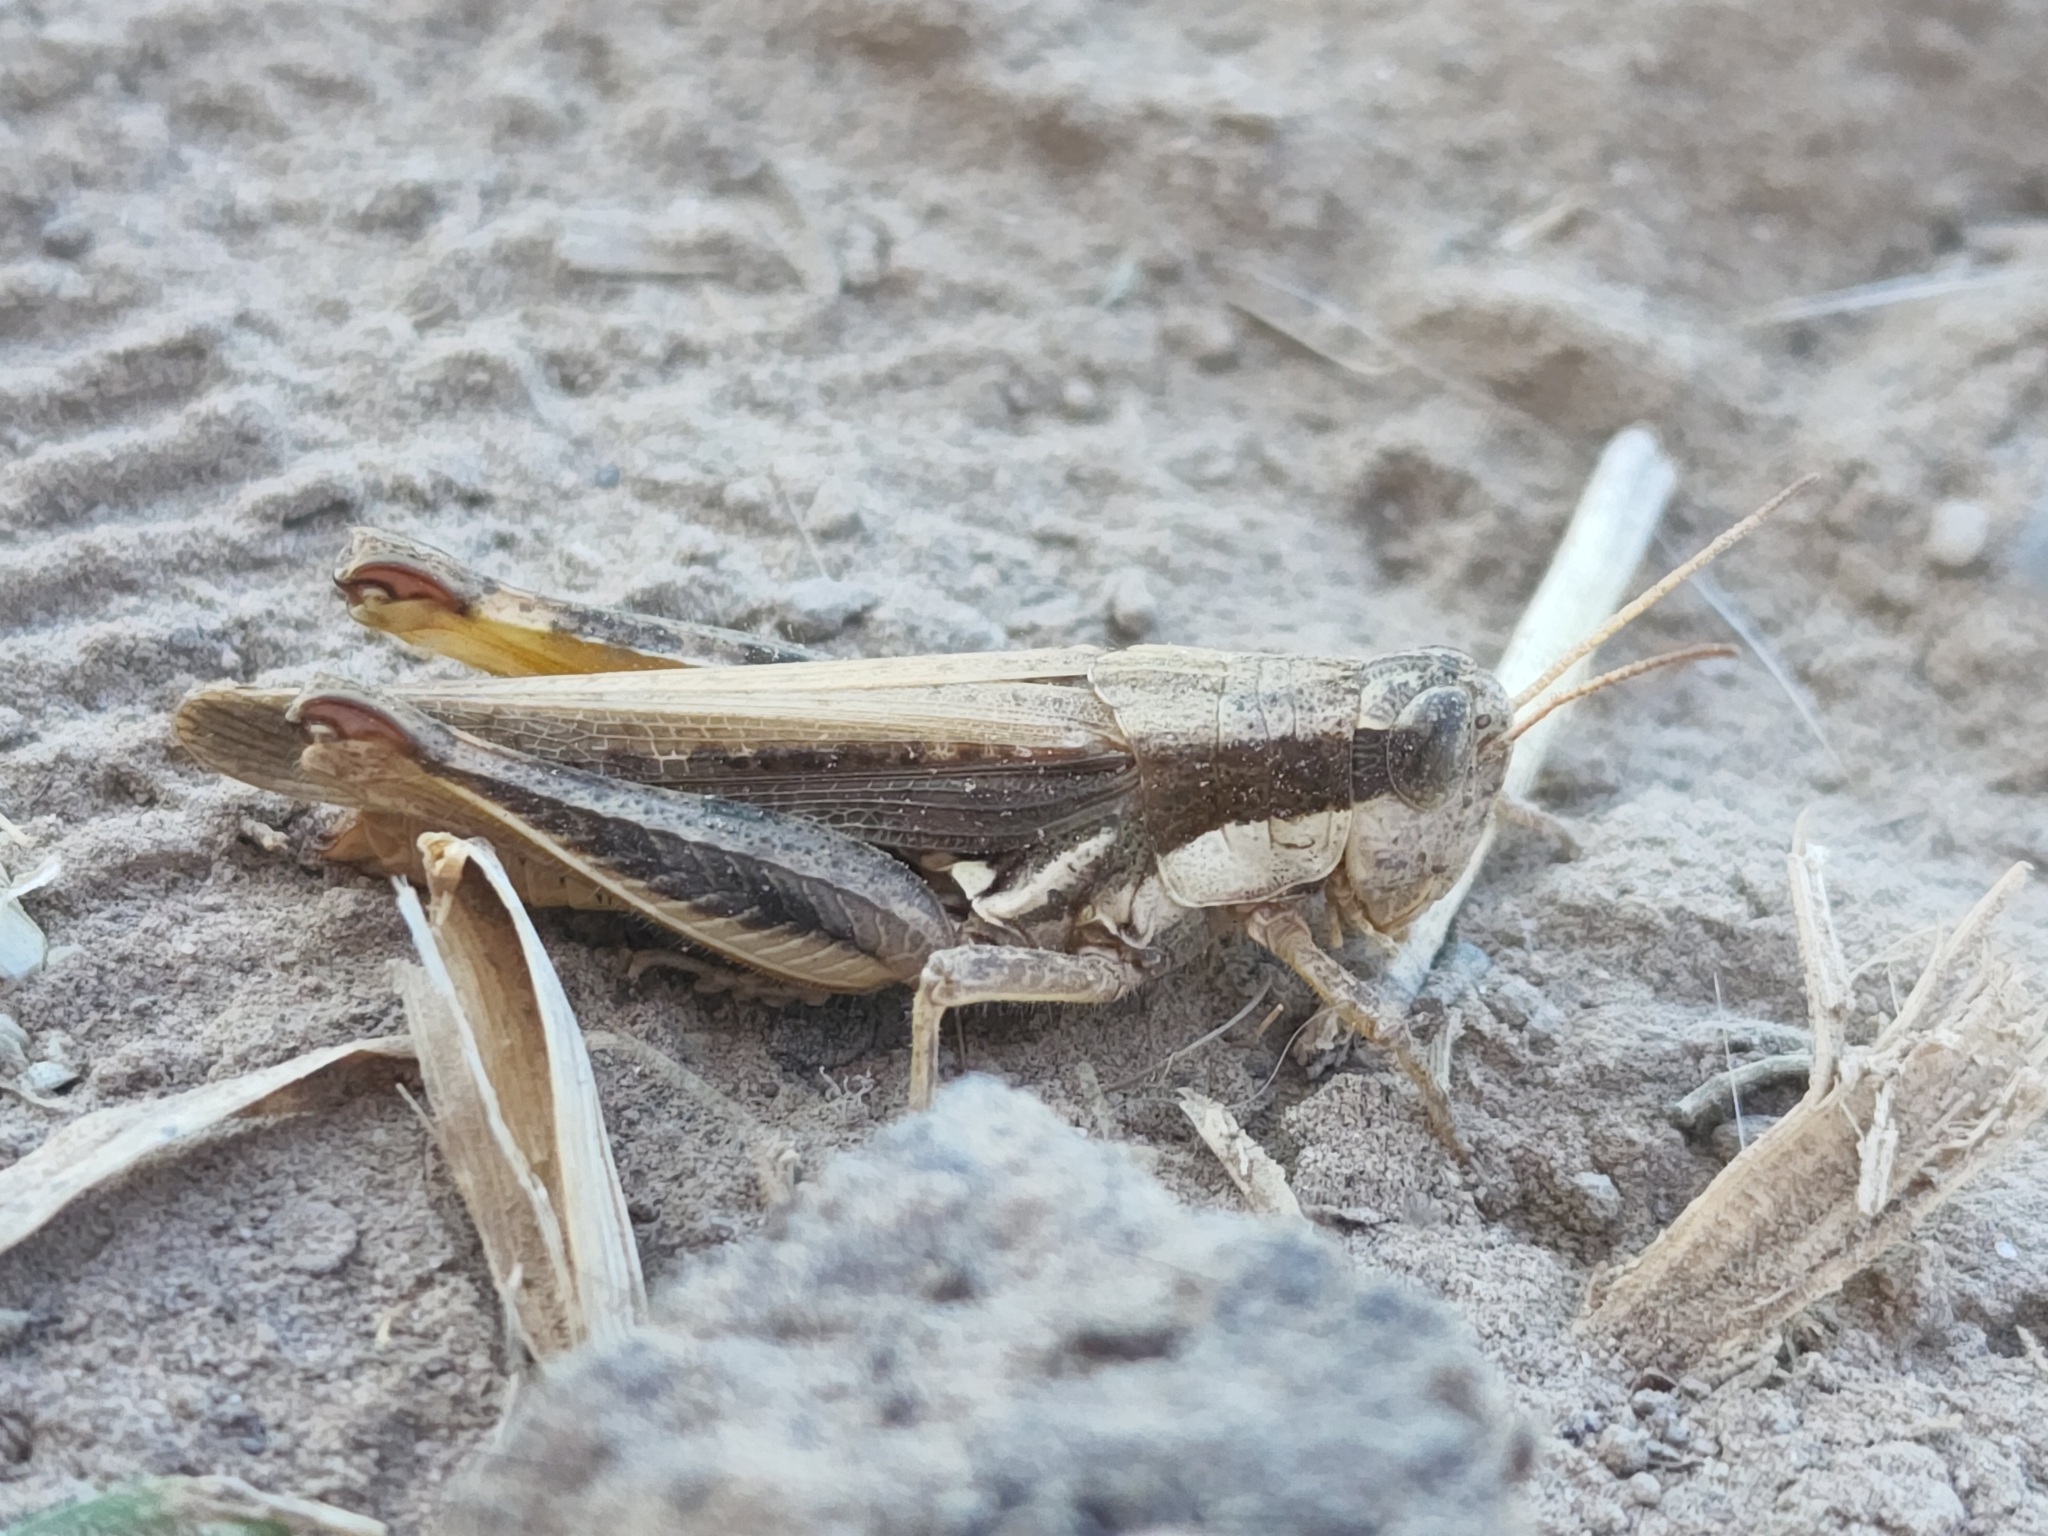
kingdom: Animalia
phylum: Arthropoda
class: Insecta
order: Orthoptera
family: Acrididae
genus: Dichroplus
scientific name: Dichroplus exilis
